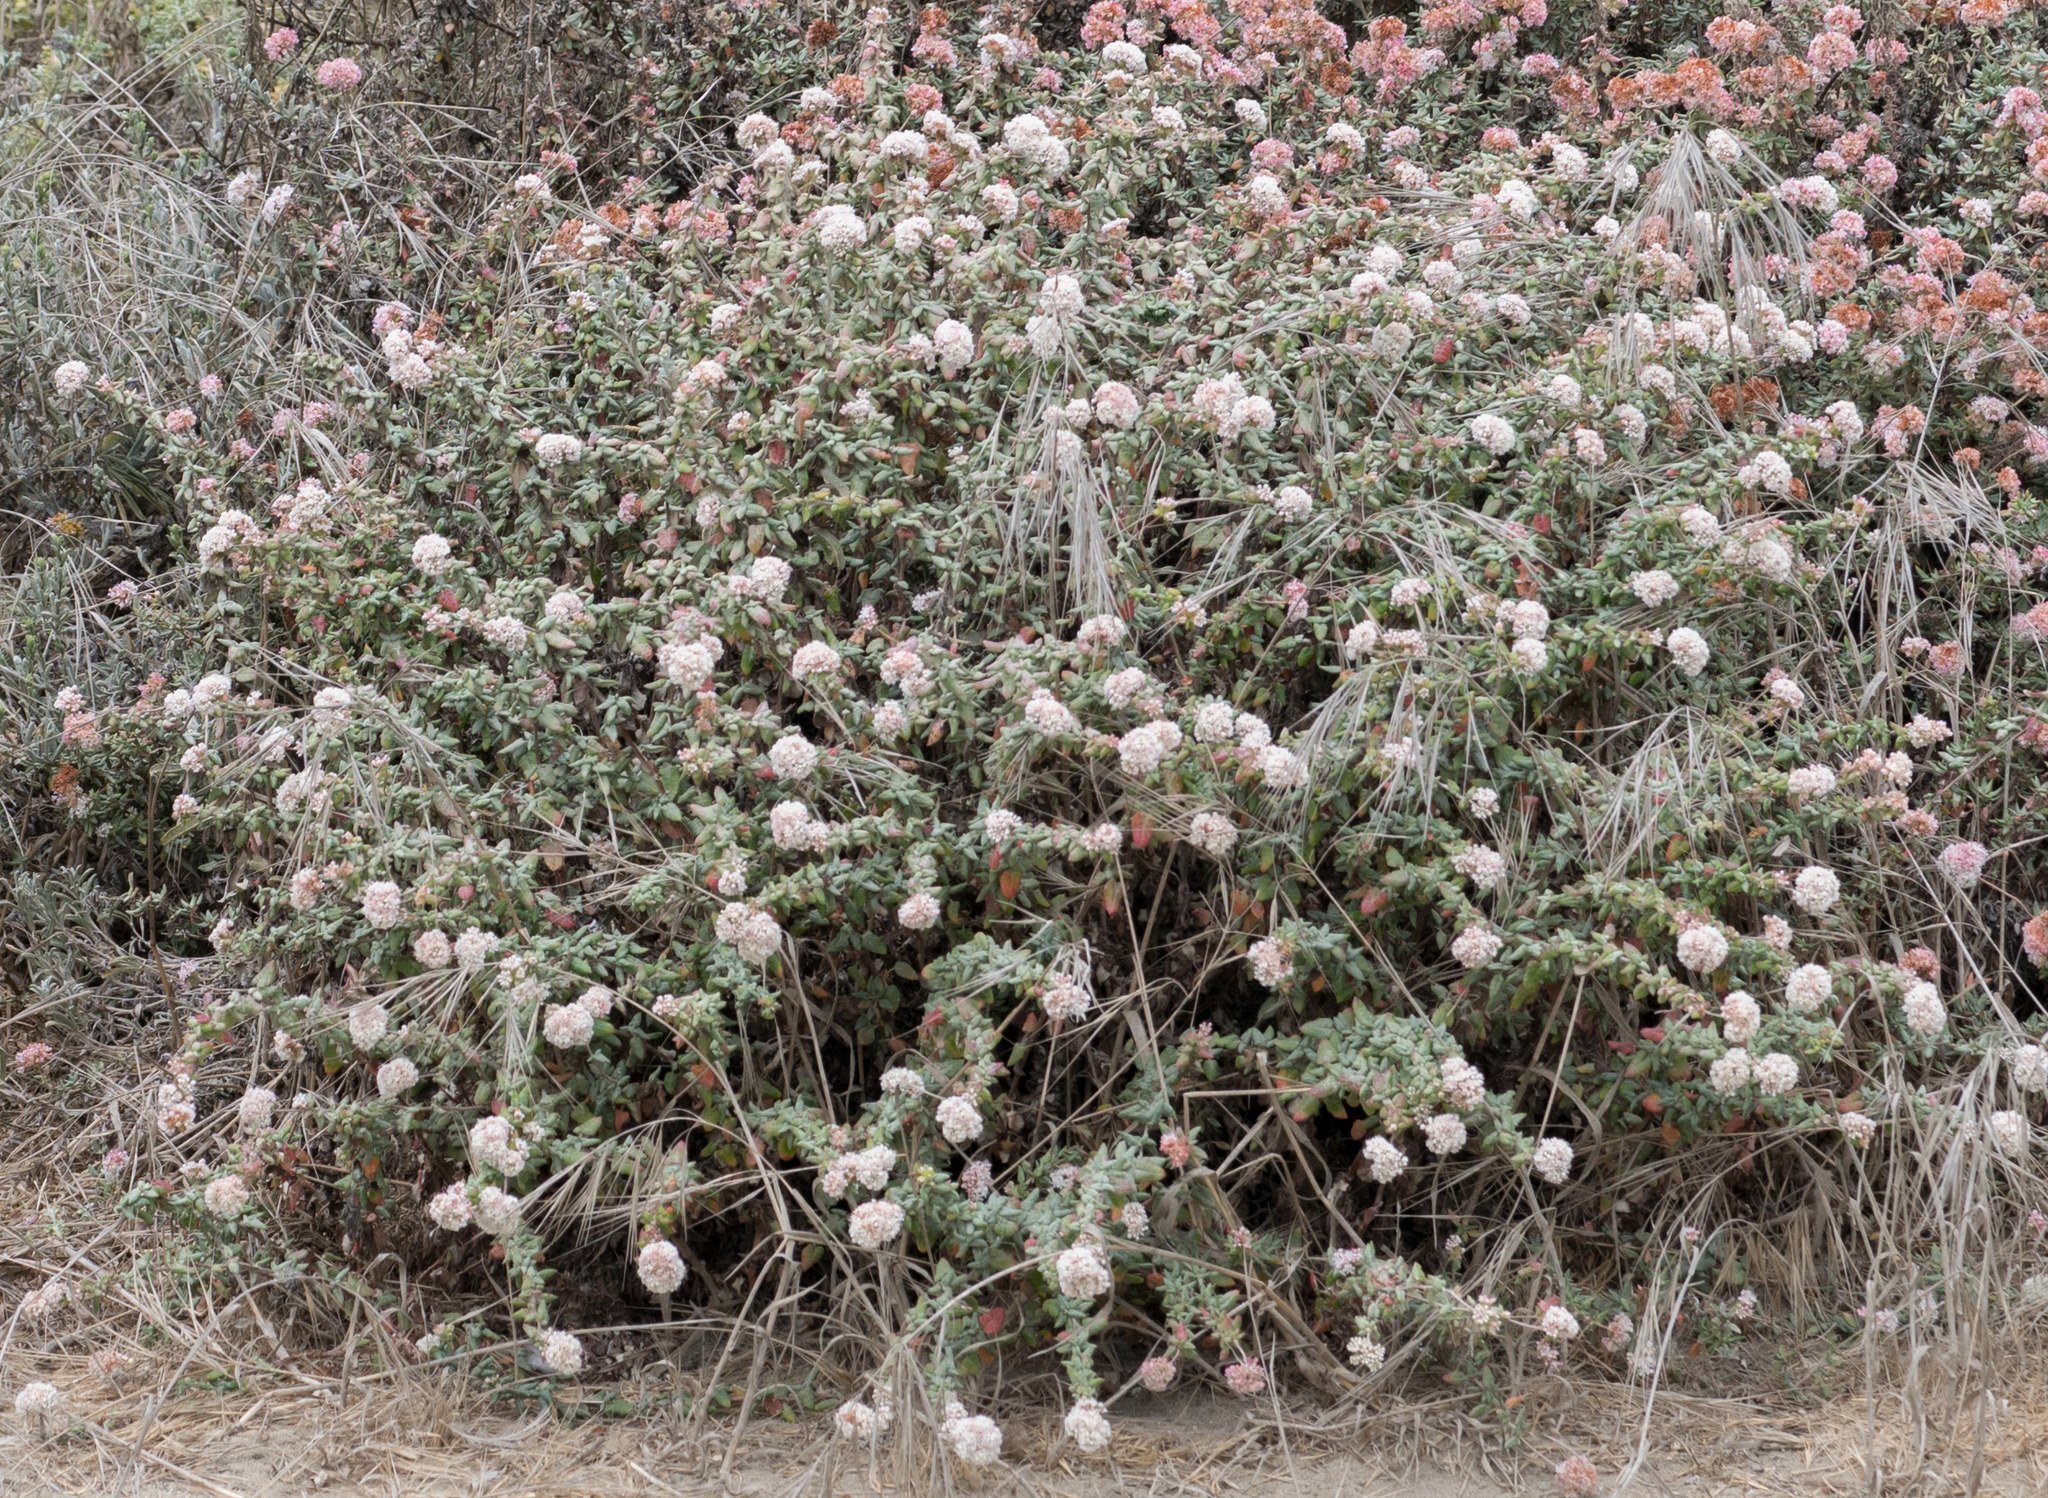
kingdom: Plantae
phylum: Tracheophyta
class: Magnoliopsida
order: Caryophyllales
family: Polygonaceae
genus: Eriogonum
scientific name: Eriogonum parvifolium
